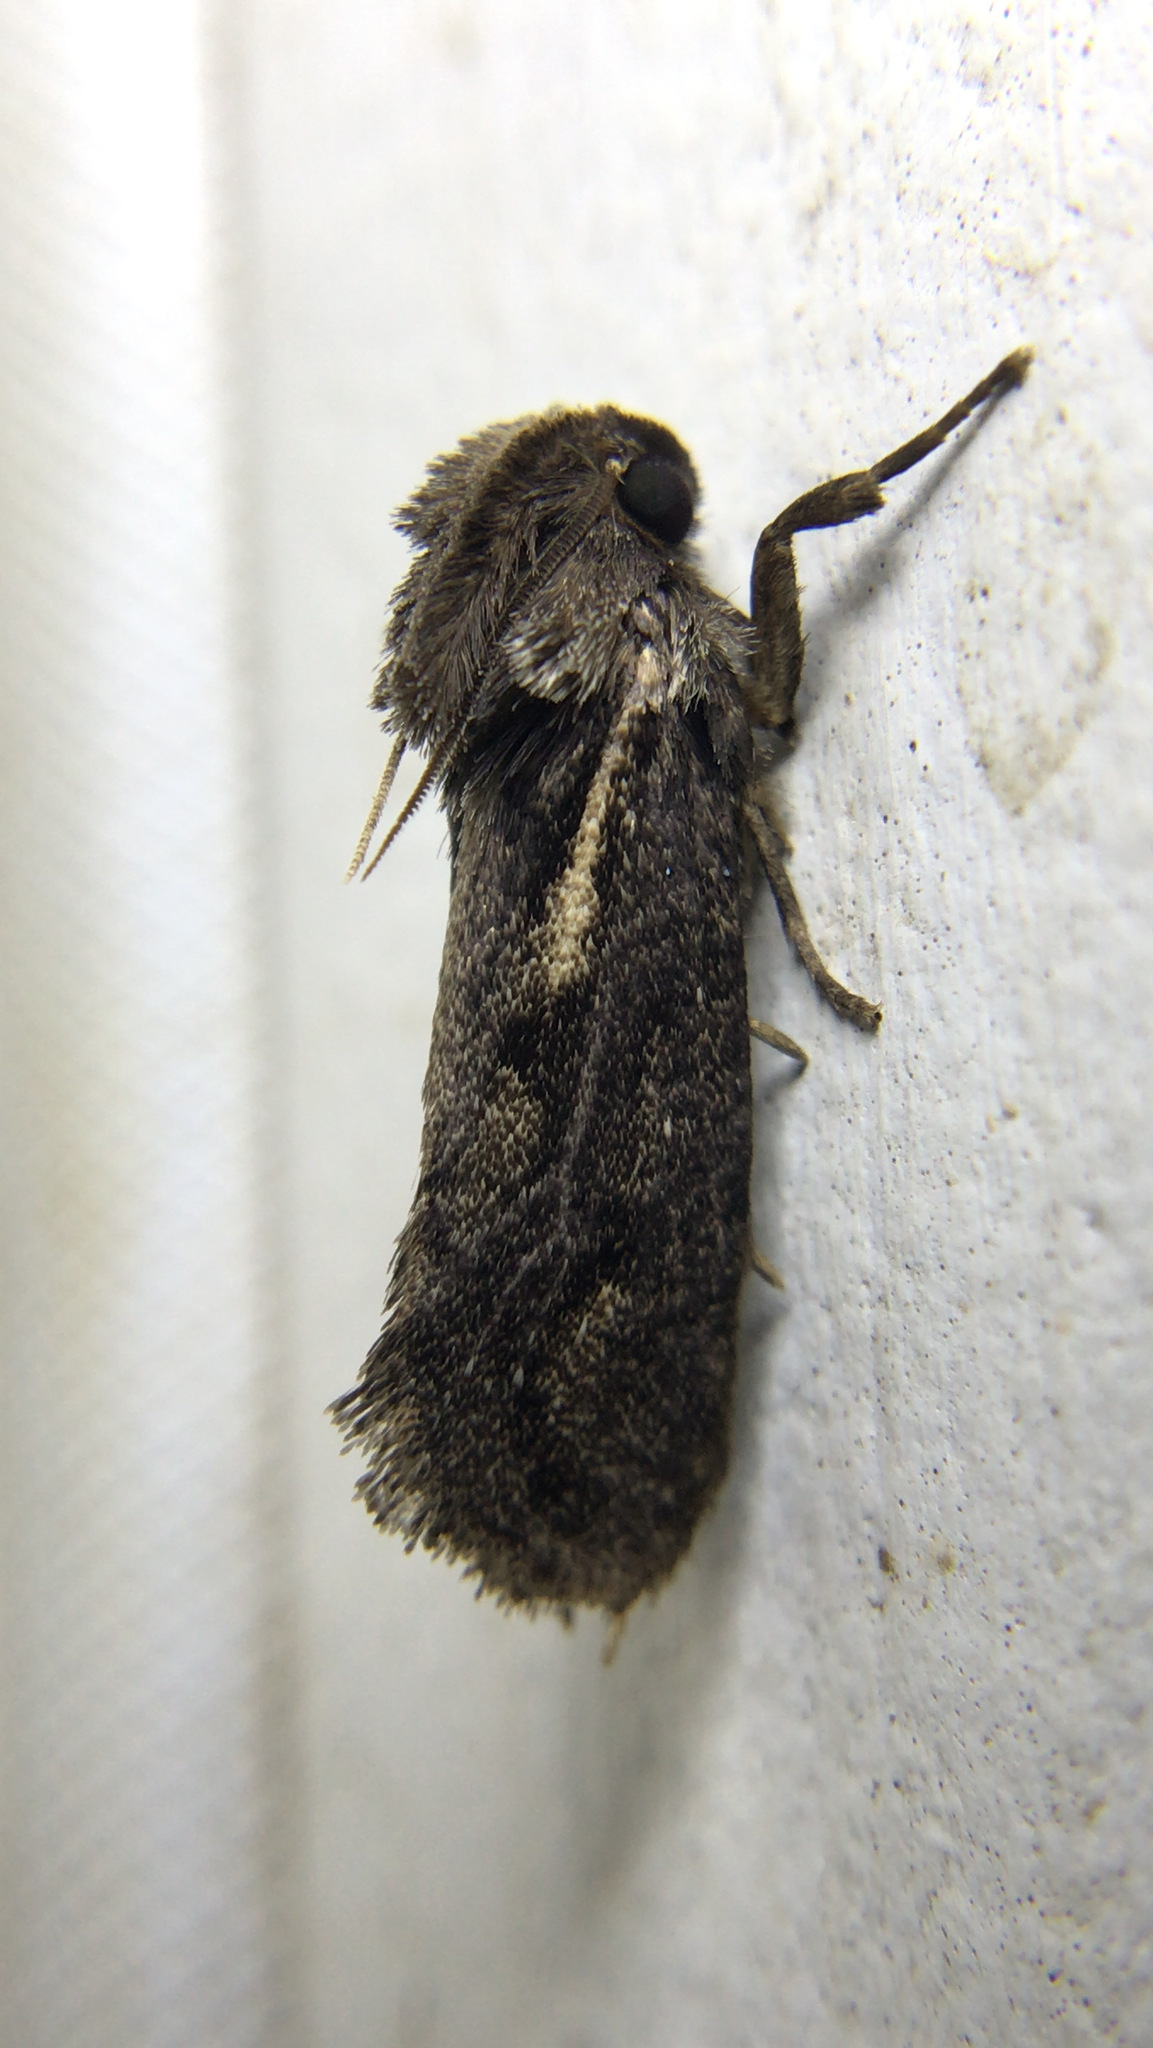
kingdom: Animalia
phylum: Arthropoda
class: Insecta
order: Lepidoptera
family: Tineidae
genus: Acrolophus
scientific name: Acrolophus popeanella
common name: Clemens' grass tubeworm moth
